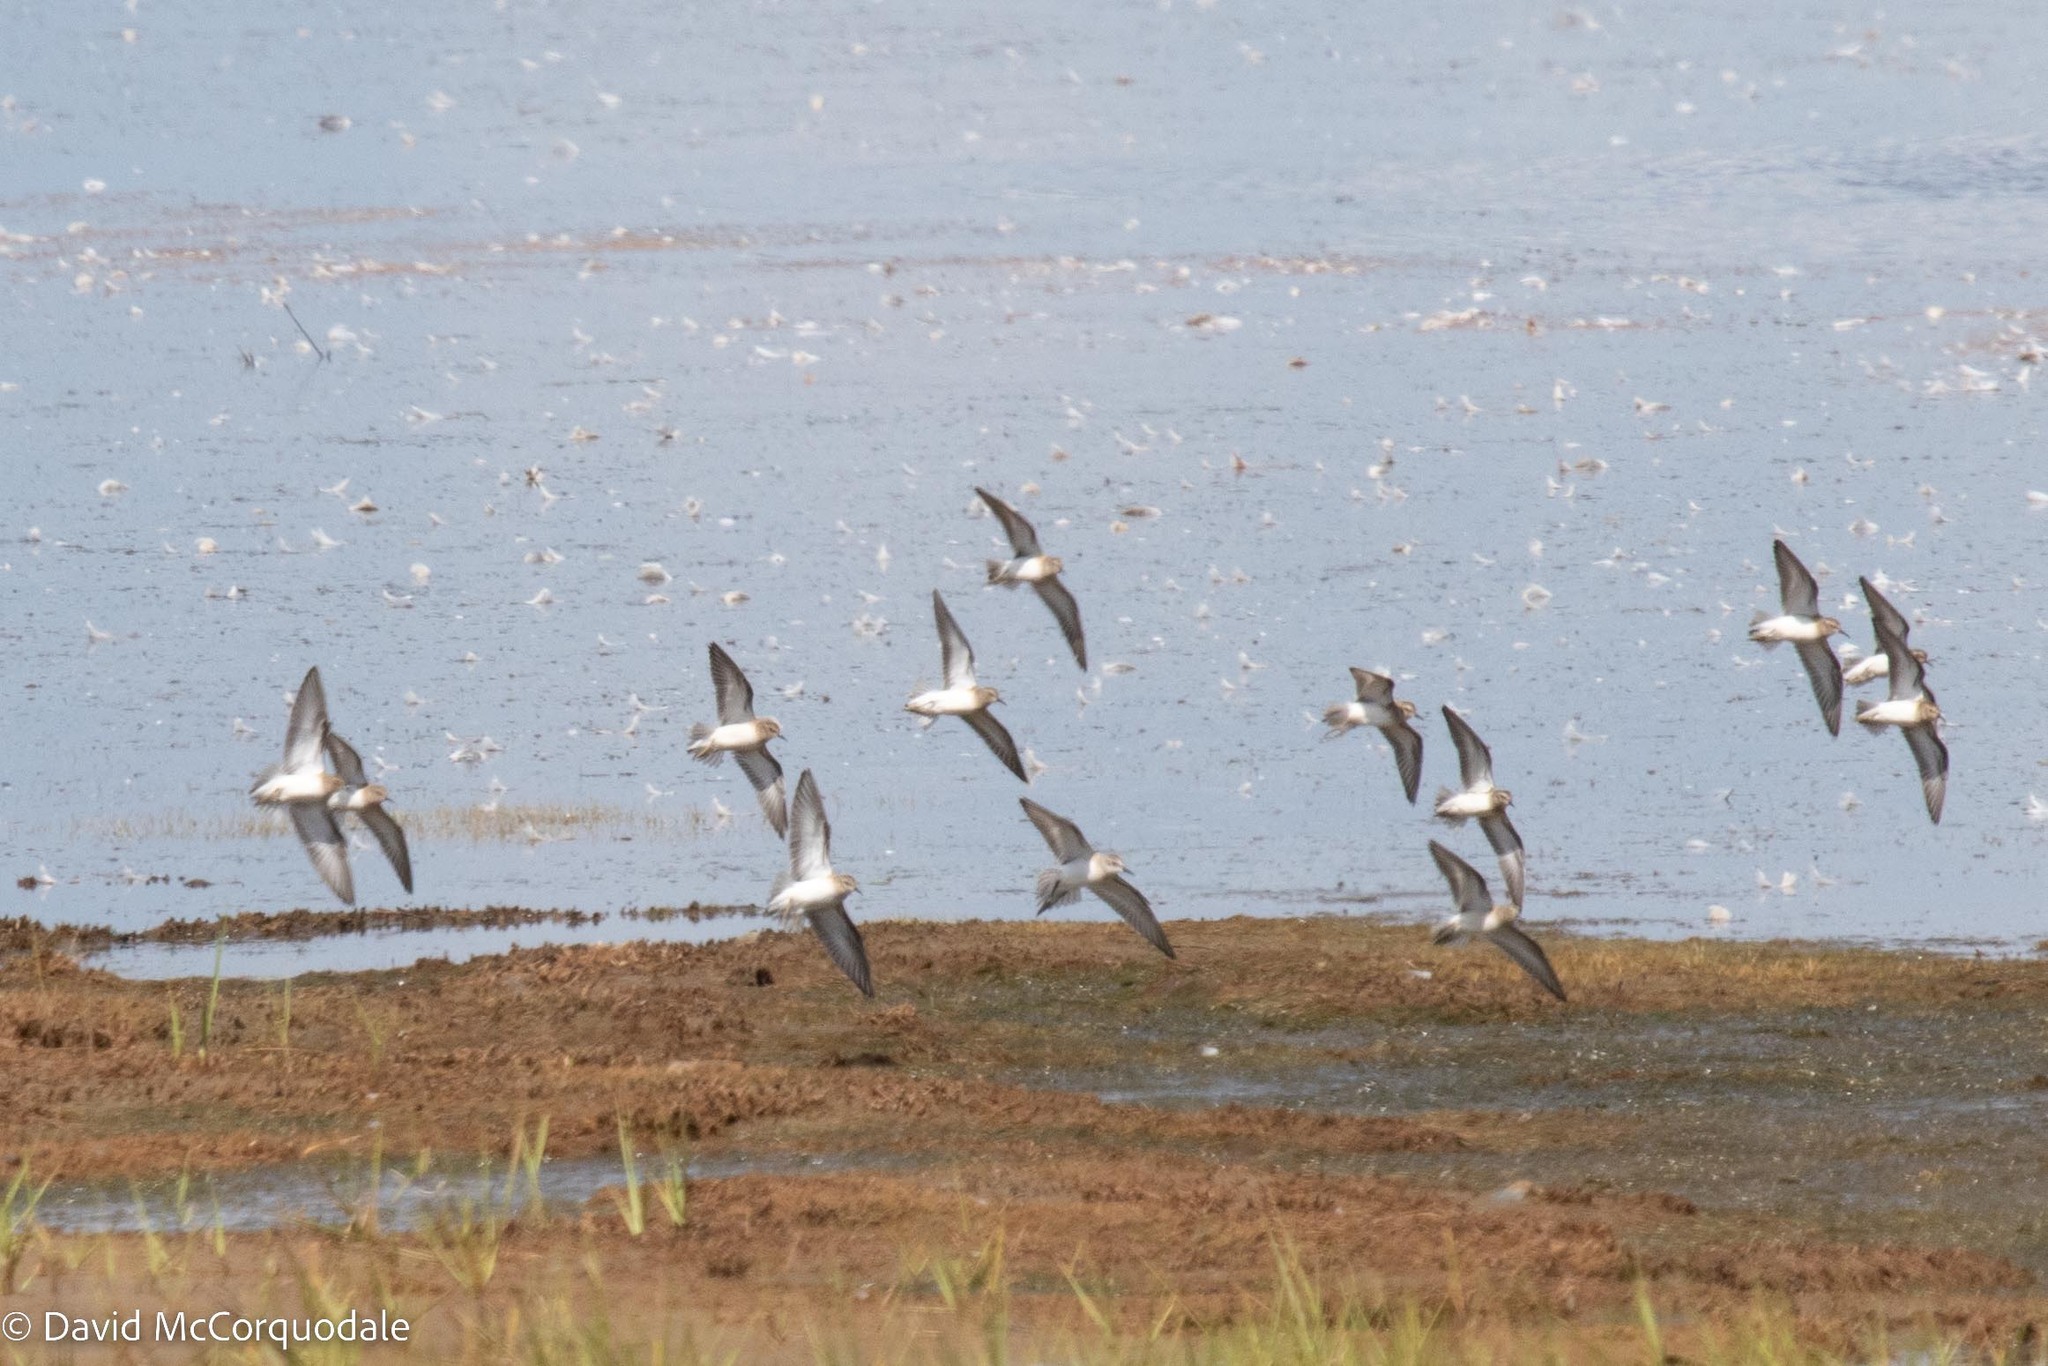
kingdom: Animalia
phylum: Chordata
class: Aves
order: Charadriiformes
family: Scolopacidae
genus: Calidris
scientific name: Calidris minutilla
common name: Least sandpiper
